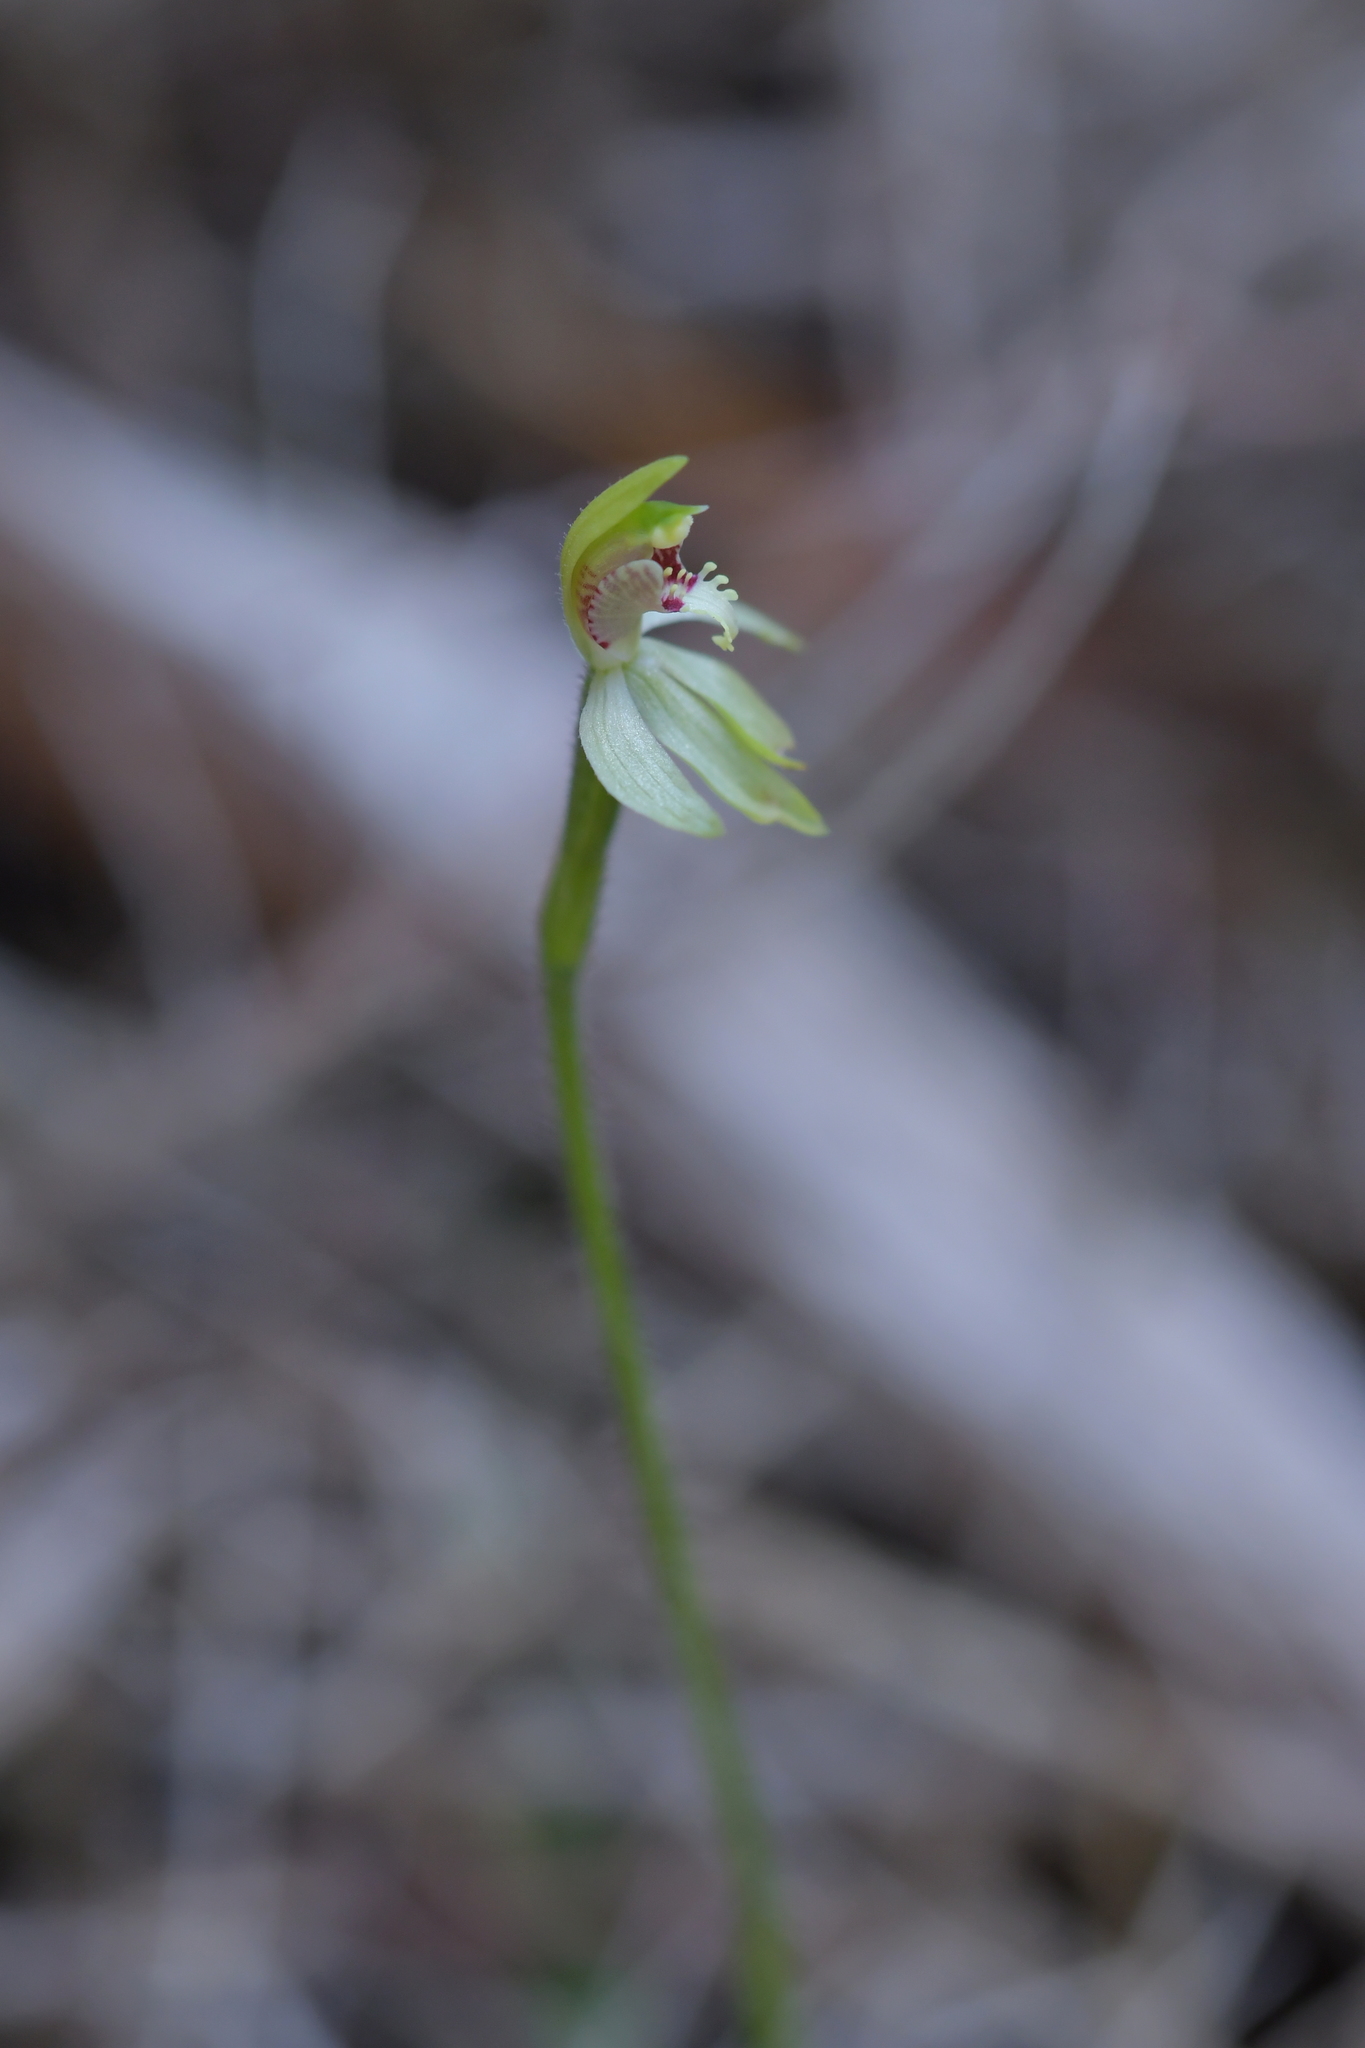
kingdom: Plantae
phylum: Tracheophyta
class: Liliopsida
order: Asparagales
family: Orchidaceae
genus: Caladenia
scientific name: Caladenia chlorostyla
